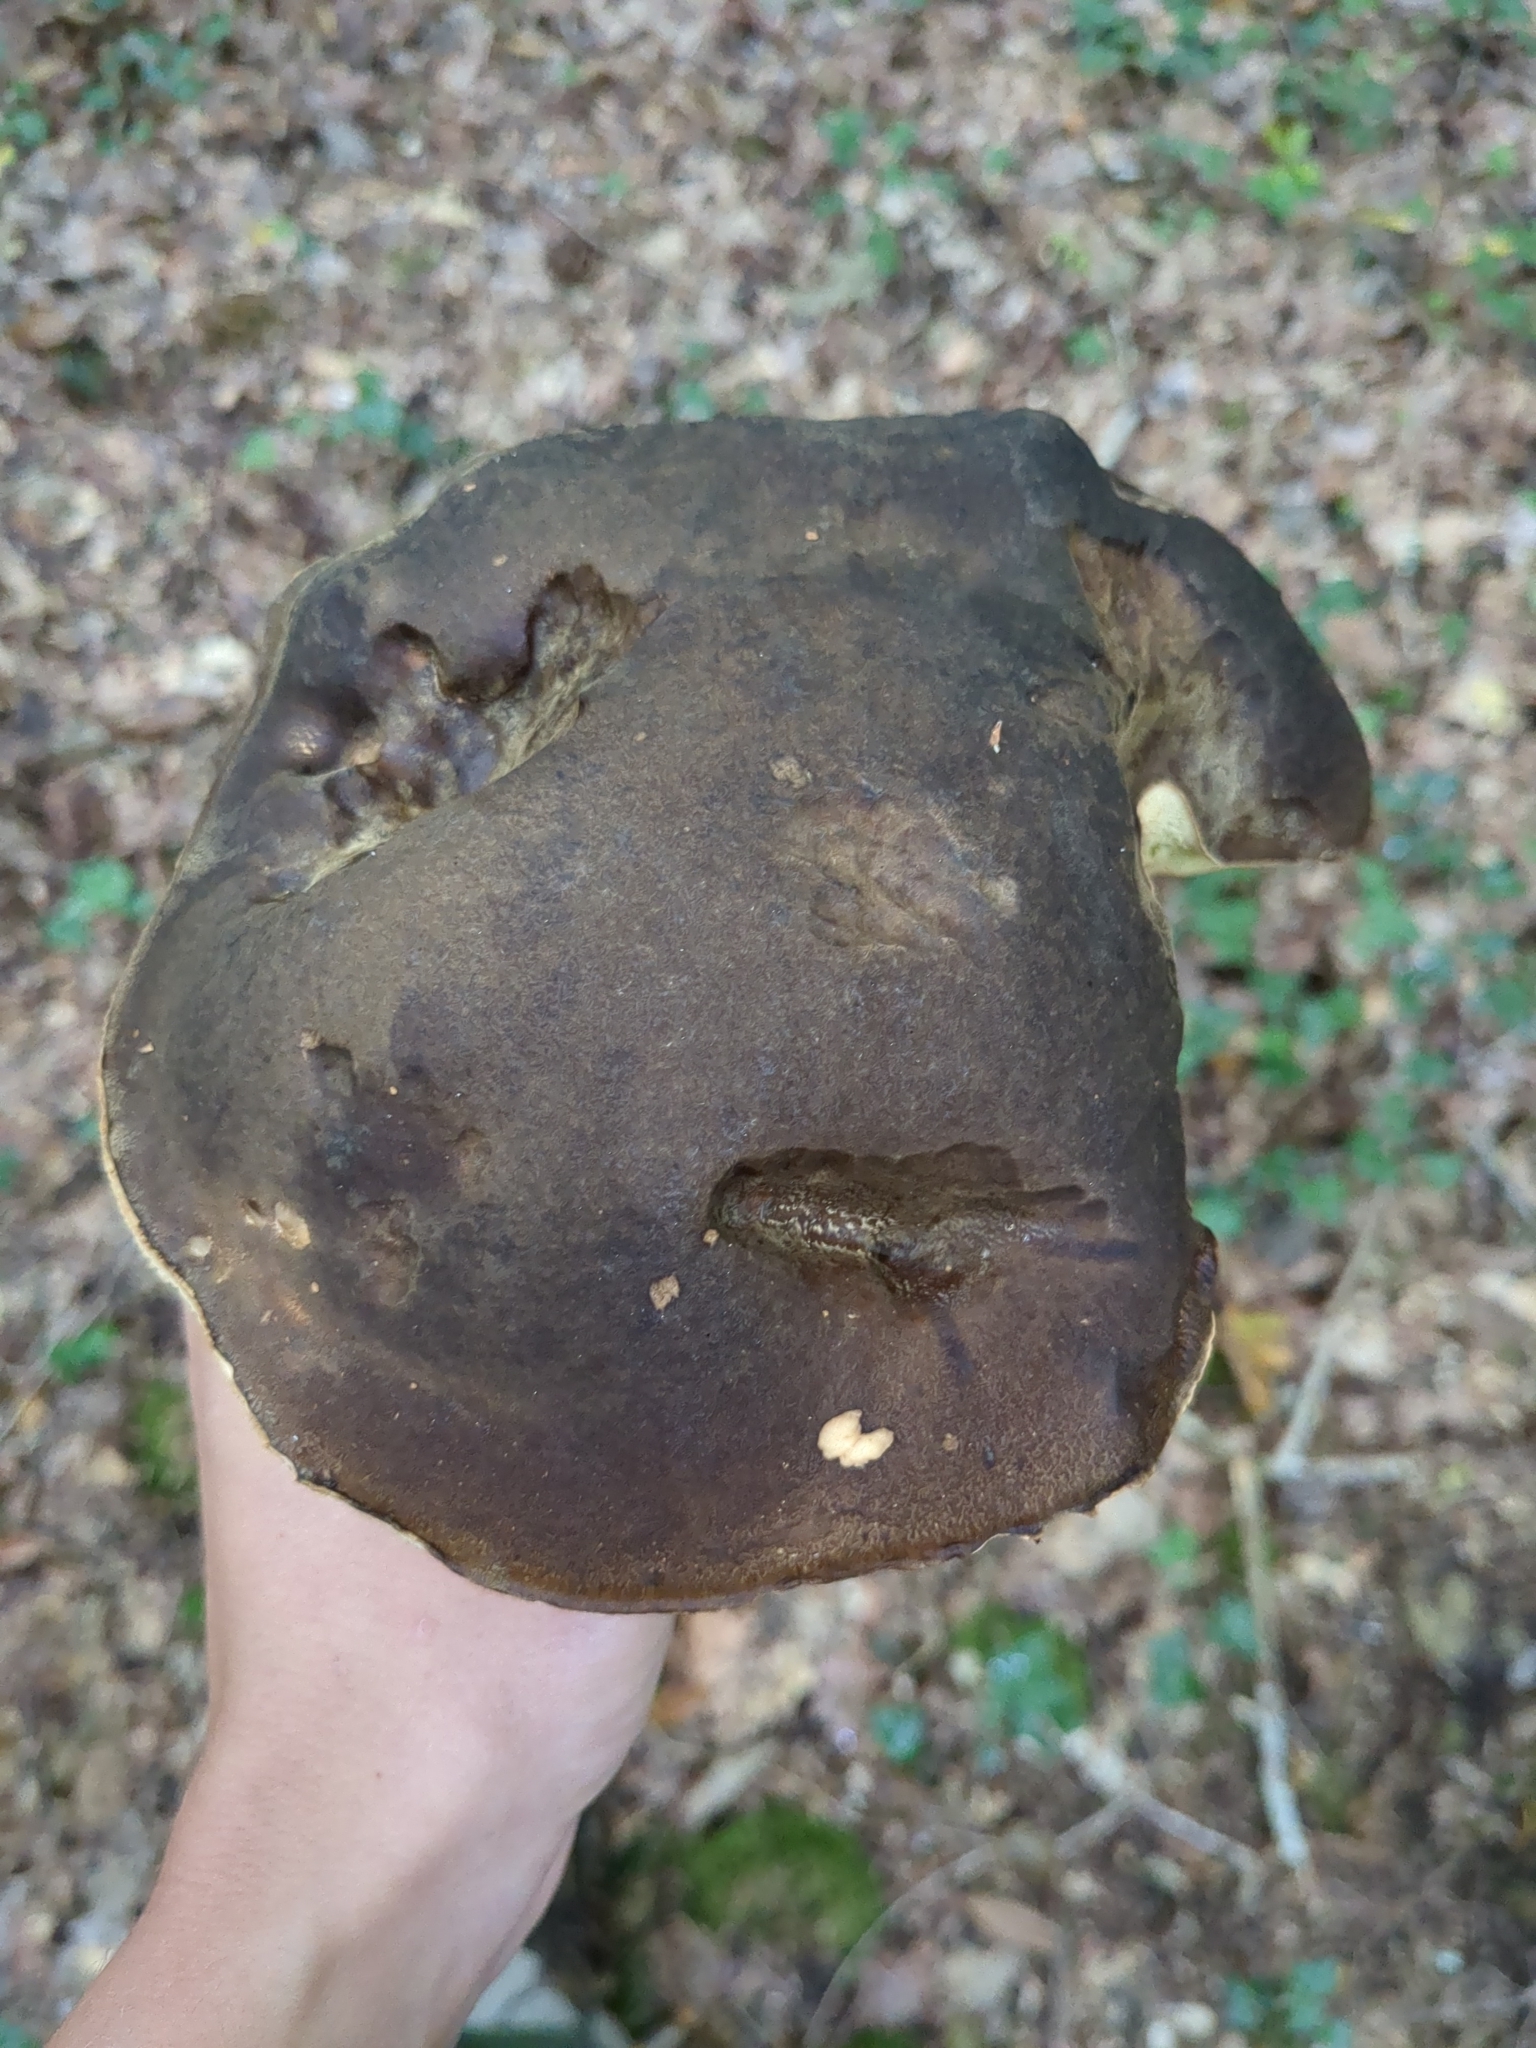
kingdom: Fungi
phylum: Basidiomycota
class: Agaricomycetes
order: Boletales
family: Boletaceae
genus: Boletus
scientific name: Boletus aereus
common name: Bronze bolete
